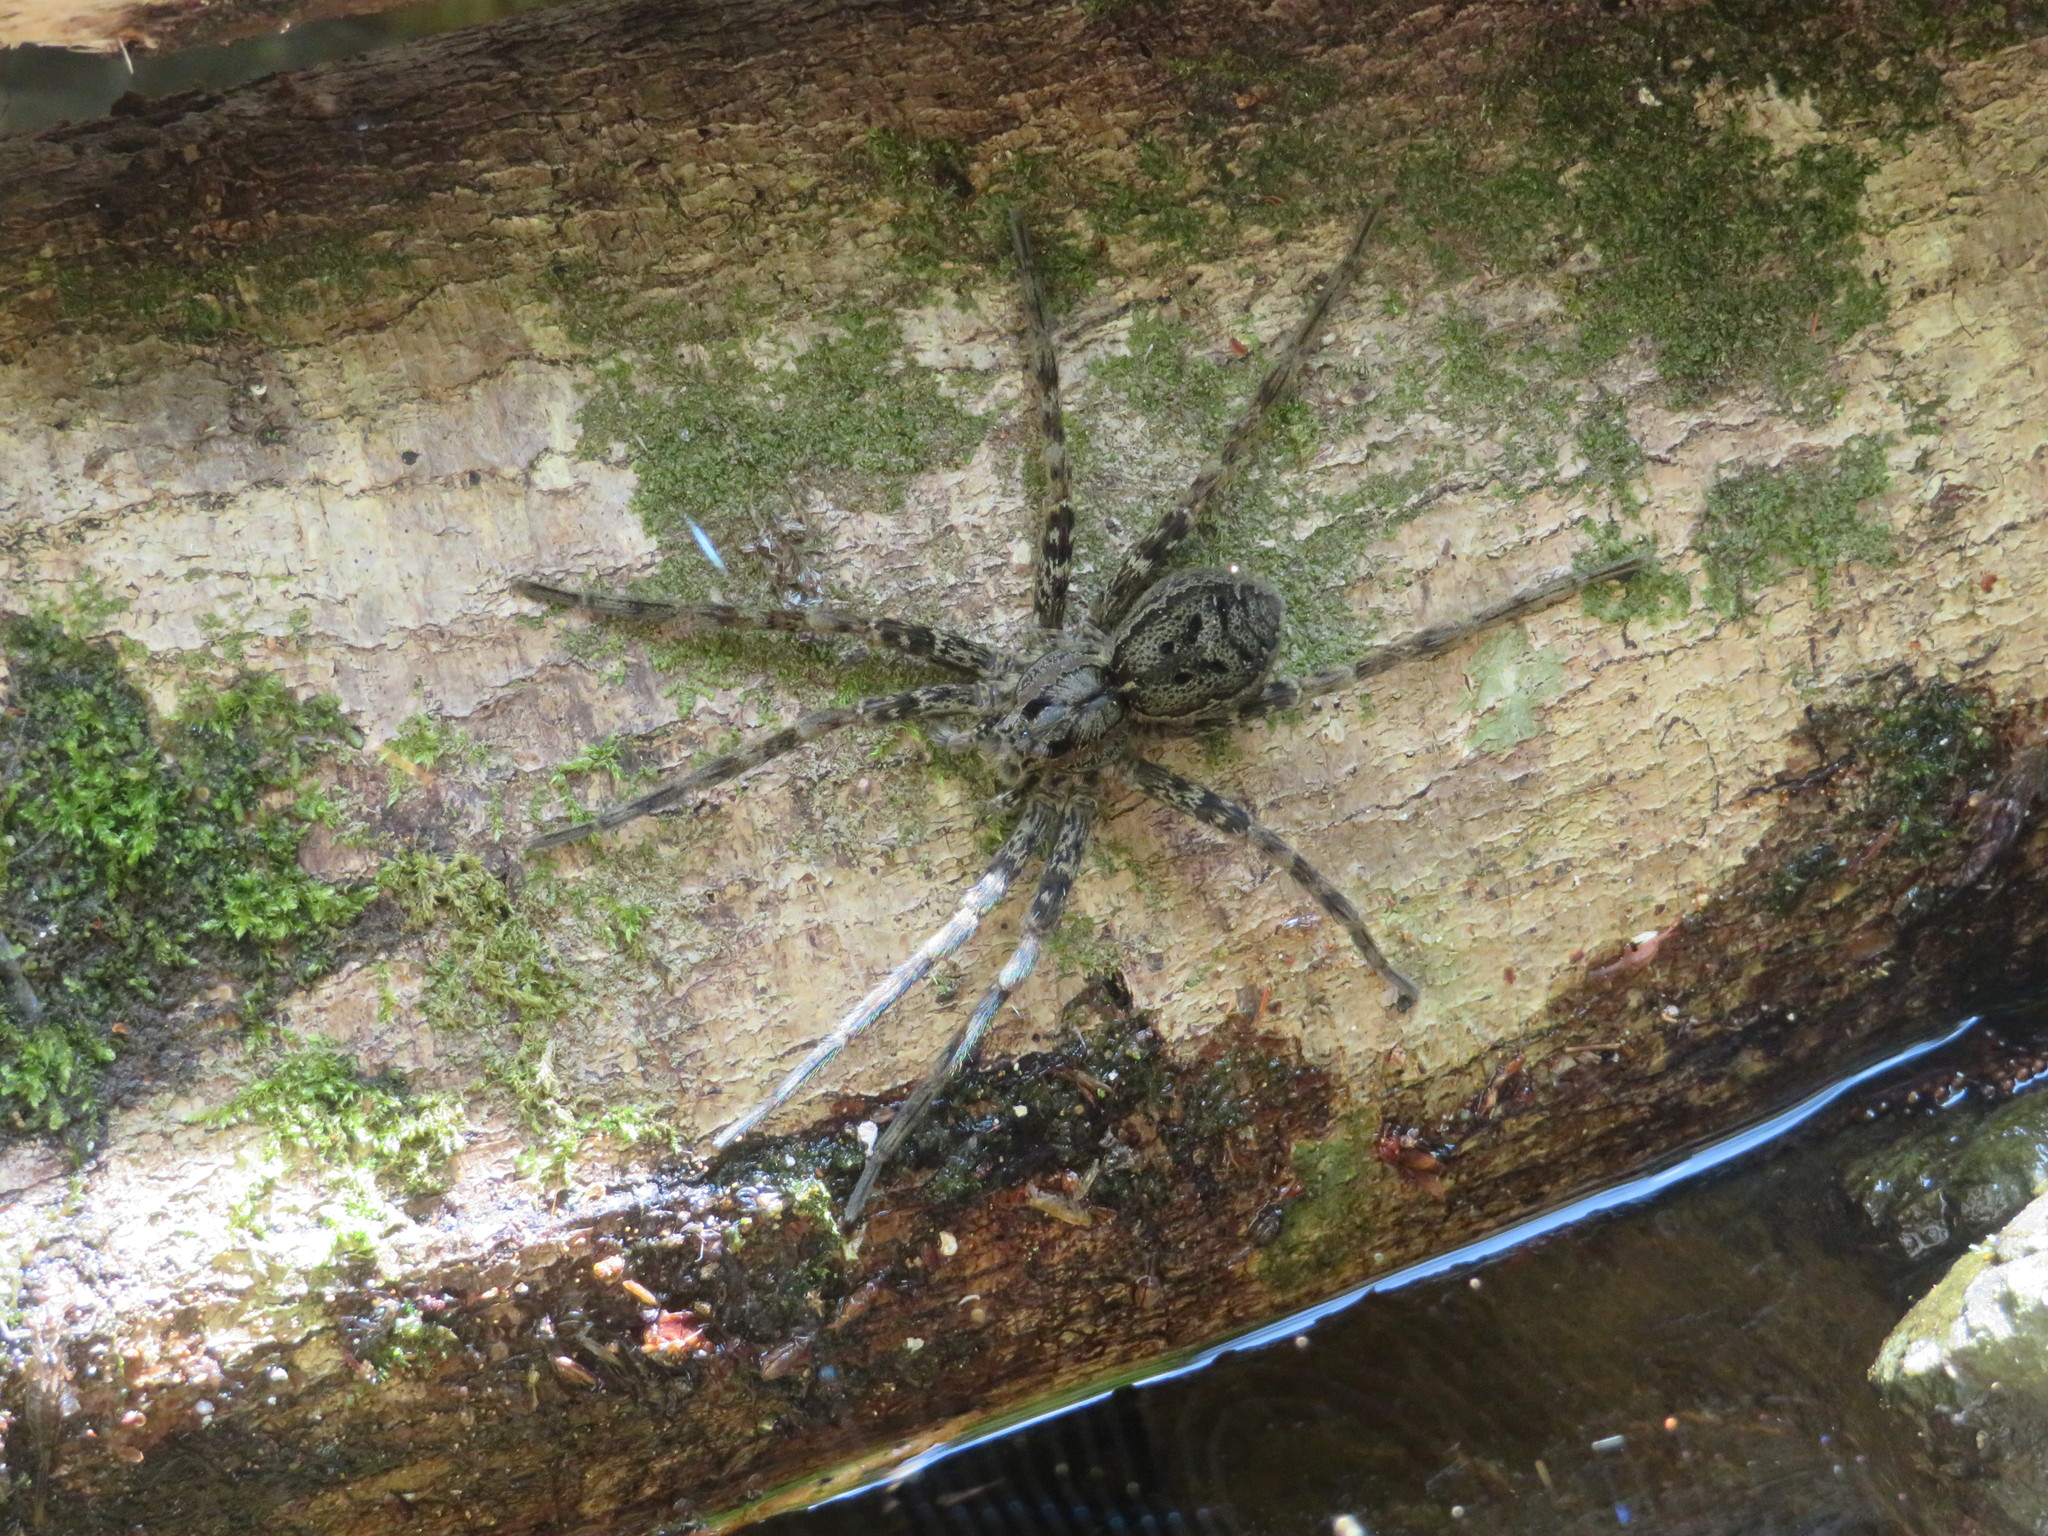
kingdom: Animalia
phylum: Arthropoda
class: Arachnida
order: Araneae
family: Pisauridae
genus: Dolomedes
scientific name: Dolomedes dondalei
